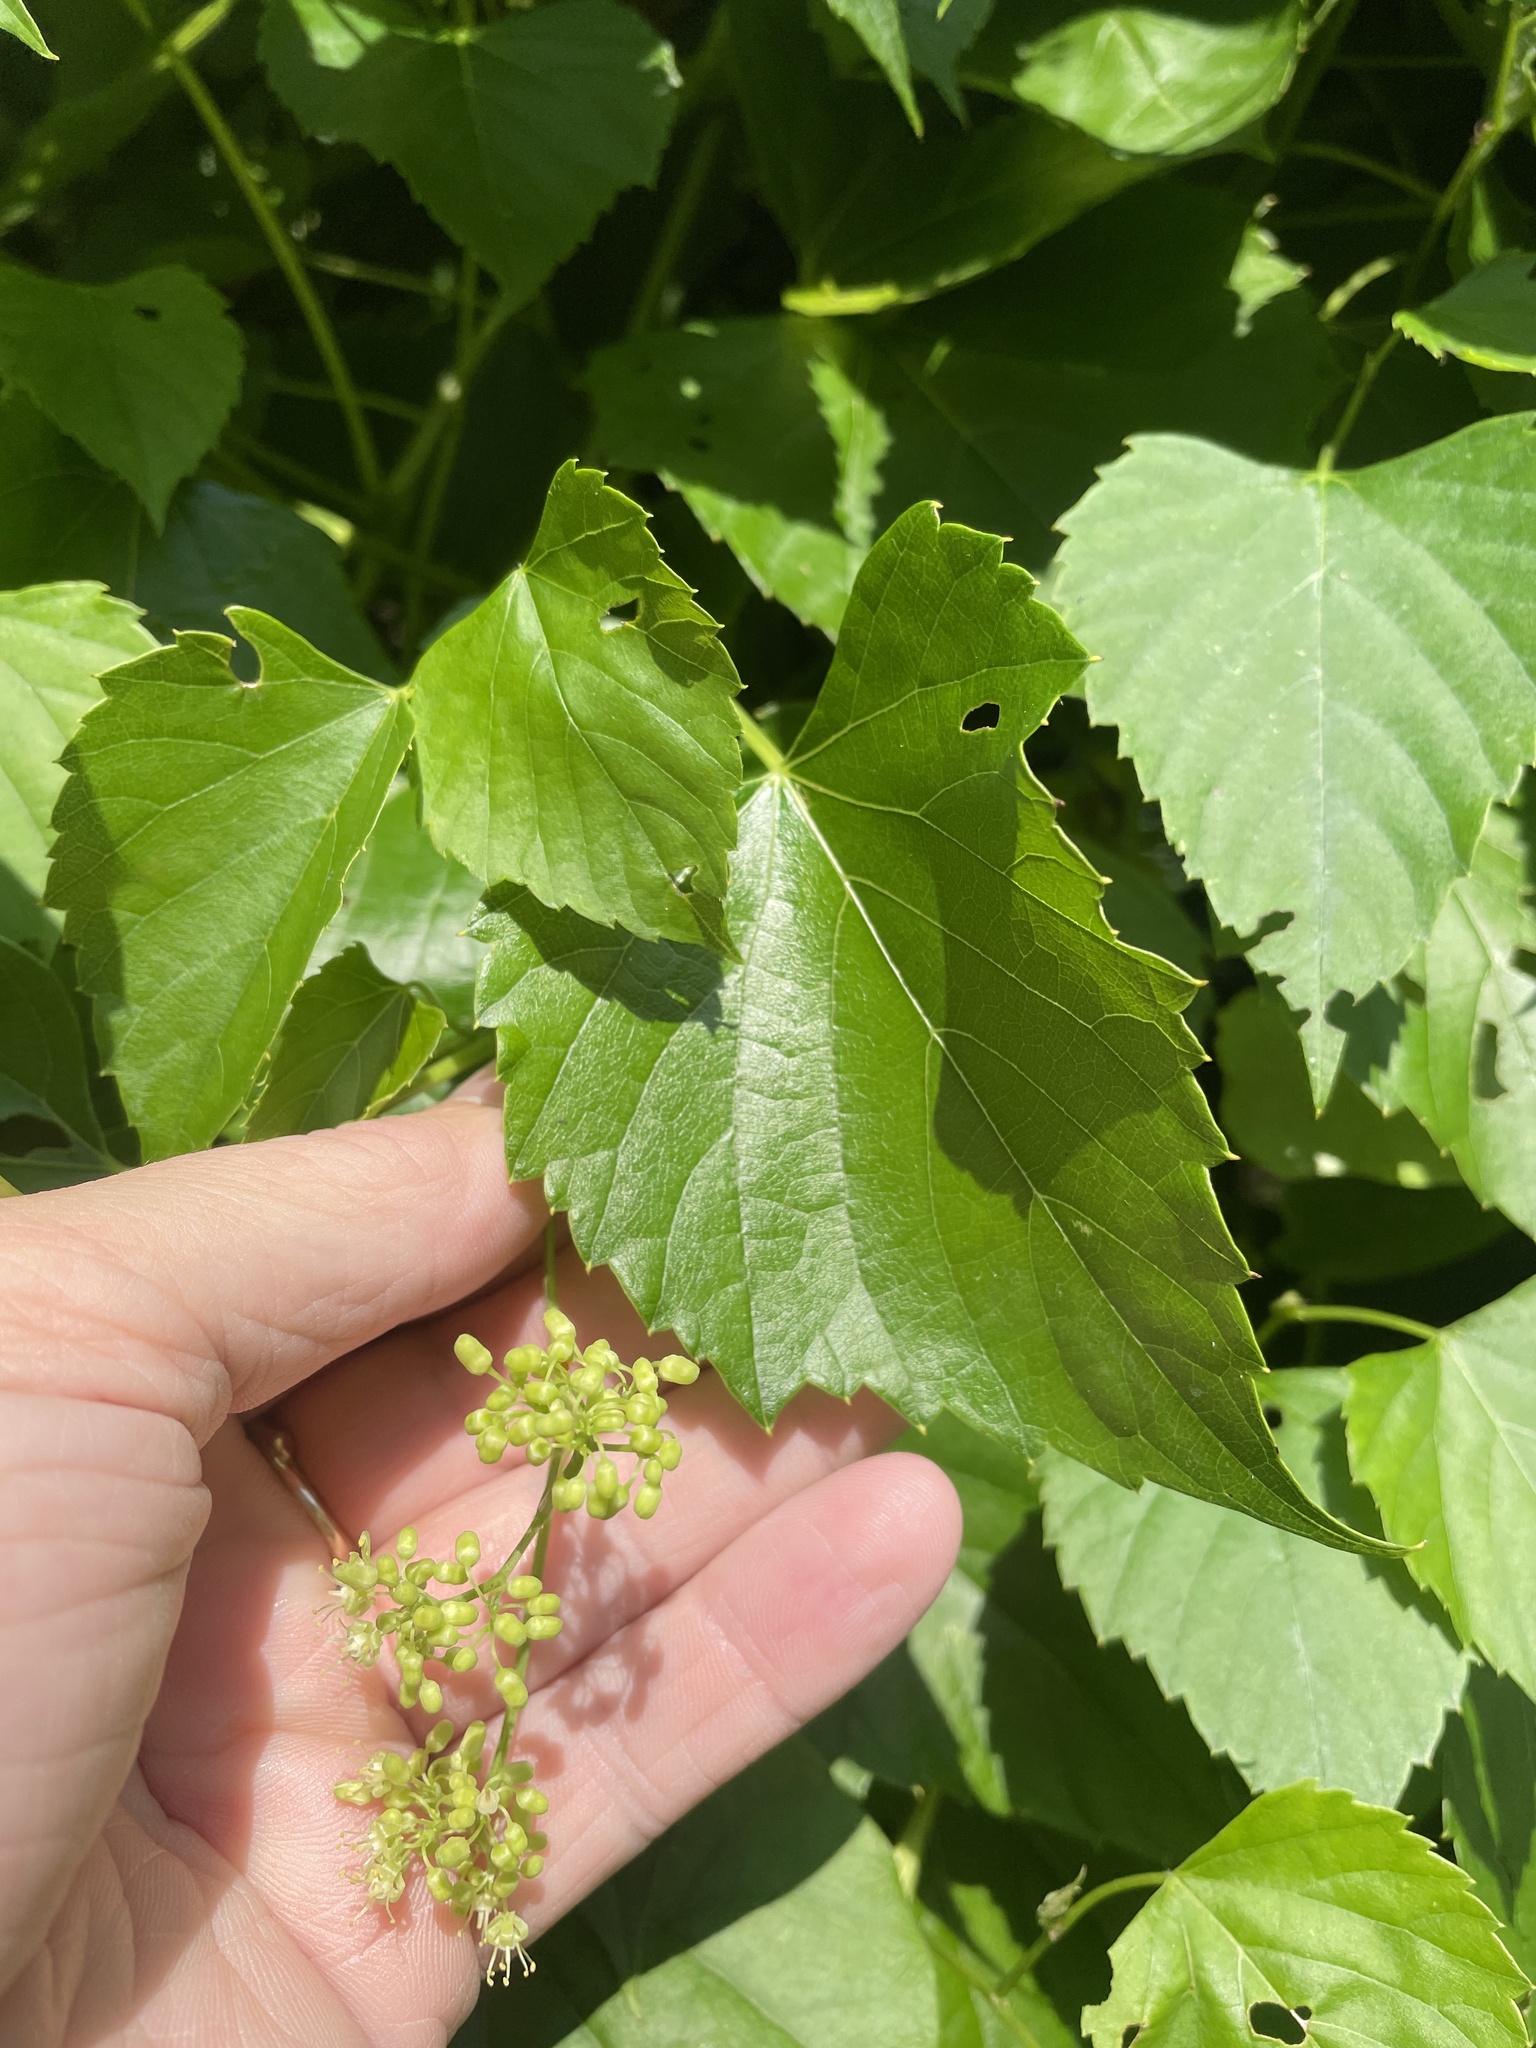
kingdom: Plantae
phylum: Tracheophyta
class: Magnoliopsida
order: Vitales
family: Vitaceae
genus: Ampelopsis
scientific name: Ampelopsis cordata
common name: Heart-leaf ampelopsis
